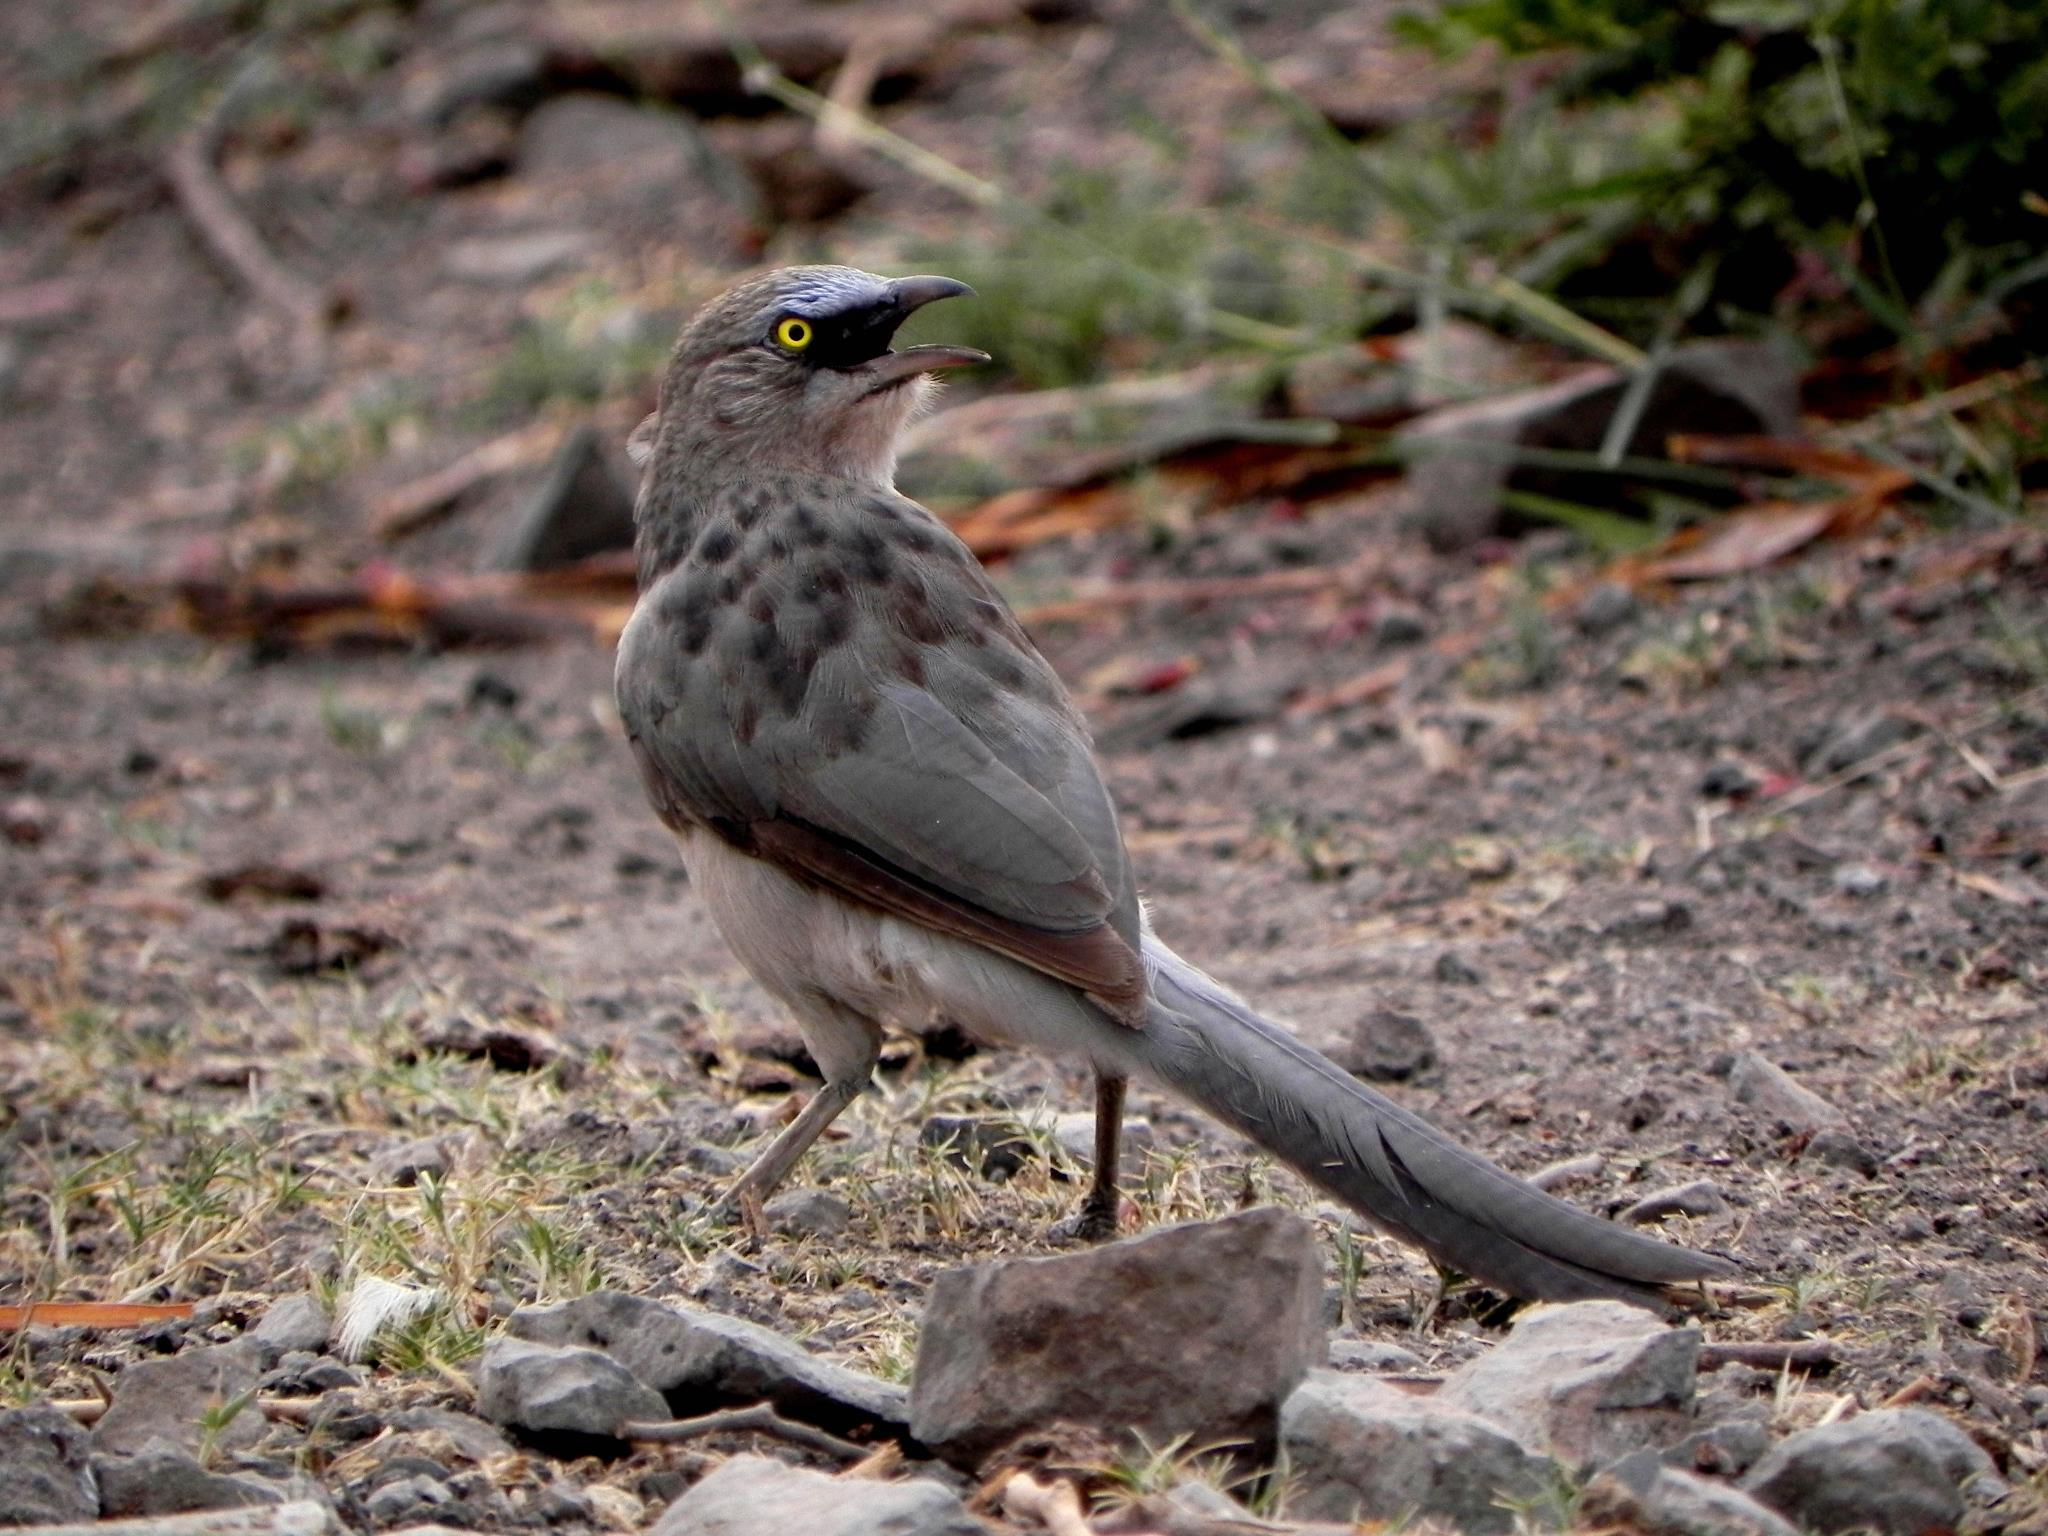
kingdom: Animalia
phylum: Chordata
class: Aves
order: Passeriformes
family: Leiothrichidae
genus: Turdoides
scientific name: Turdoides malcolmi
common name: Large grey babbler
